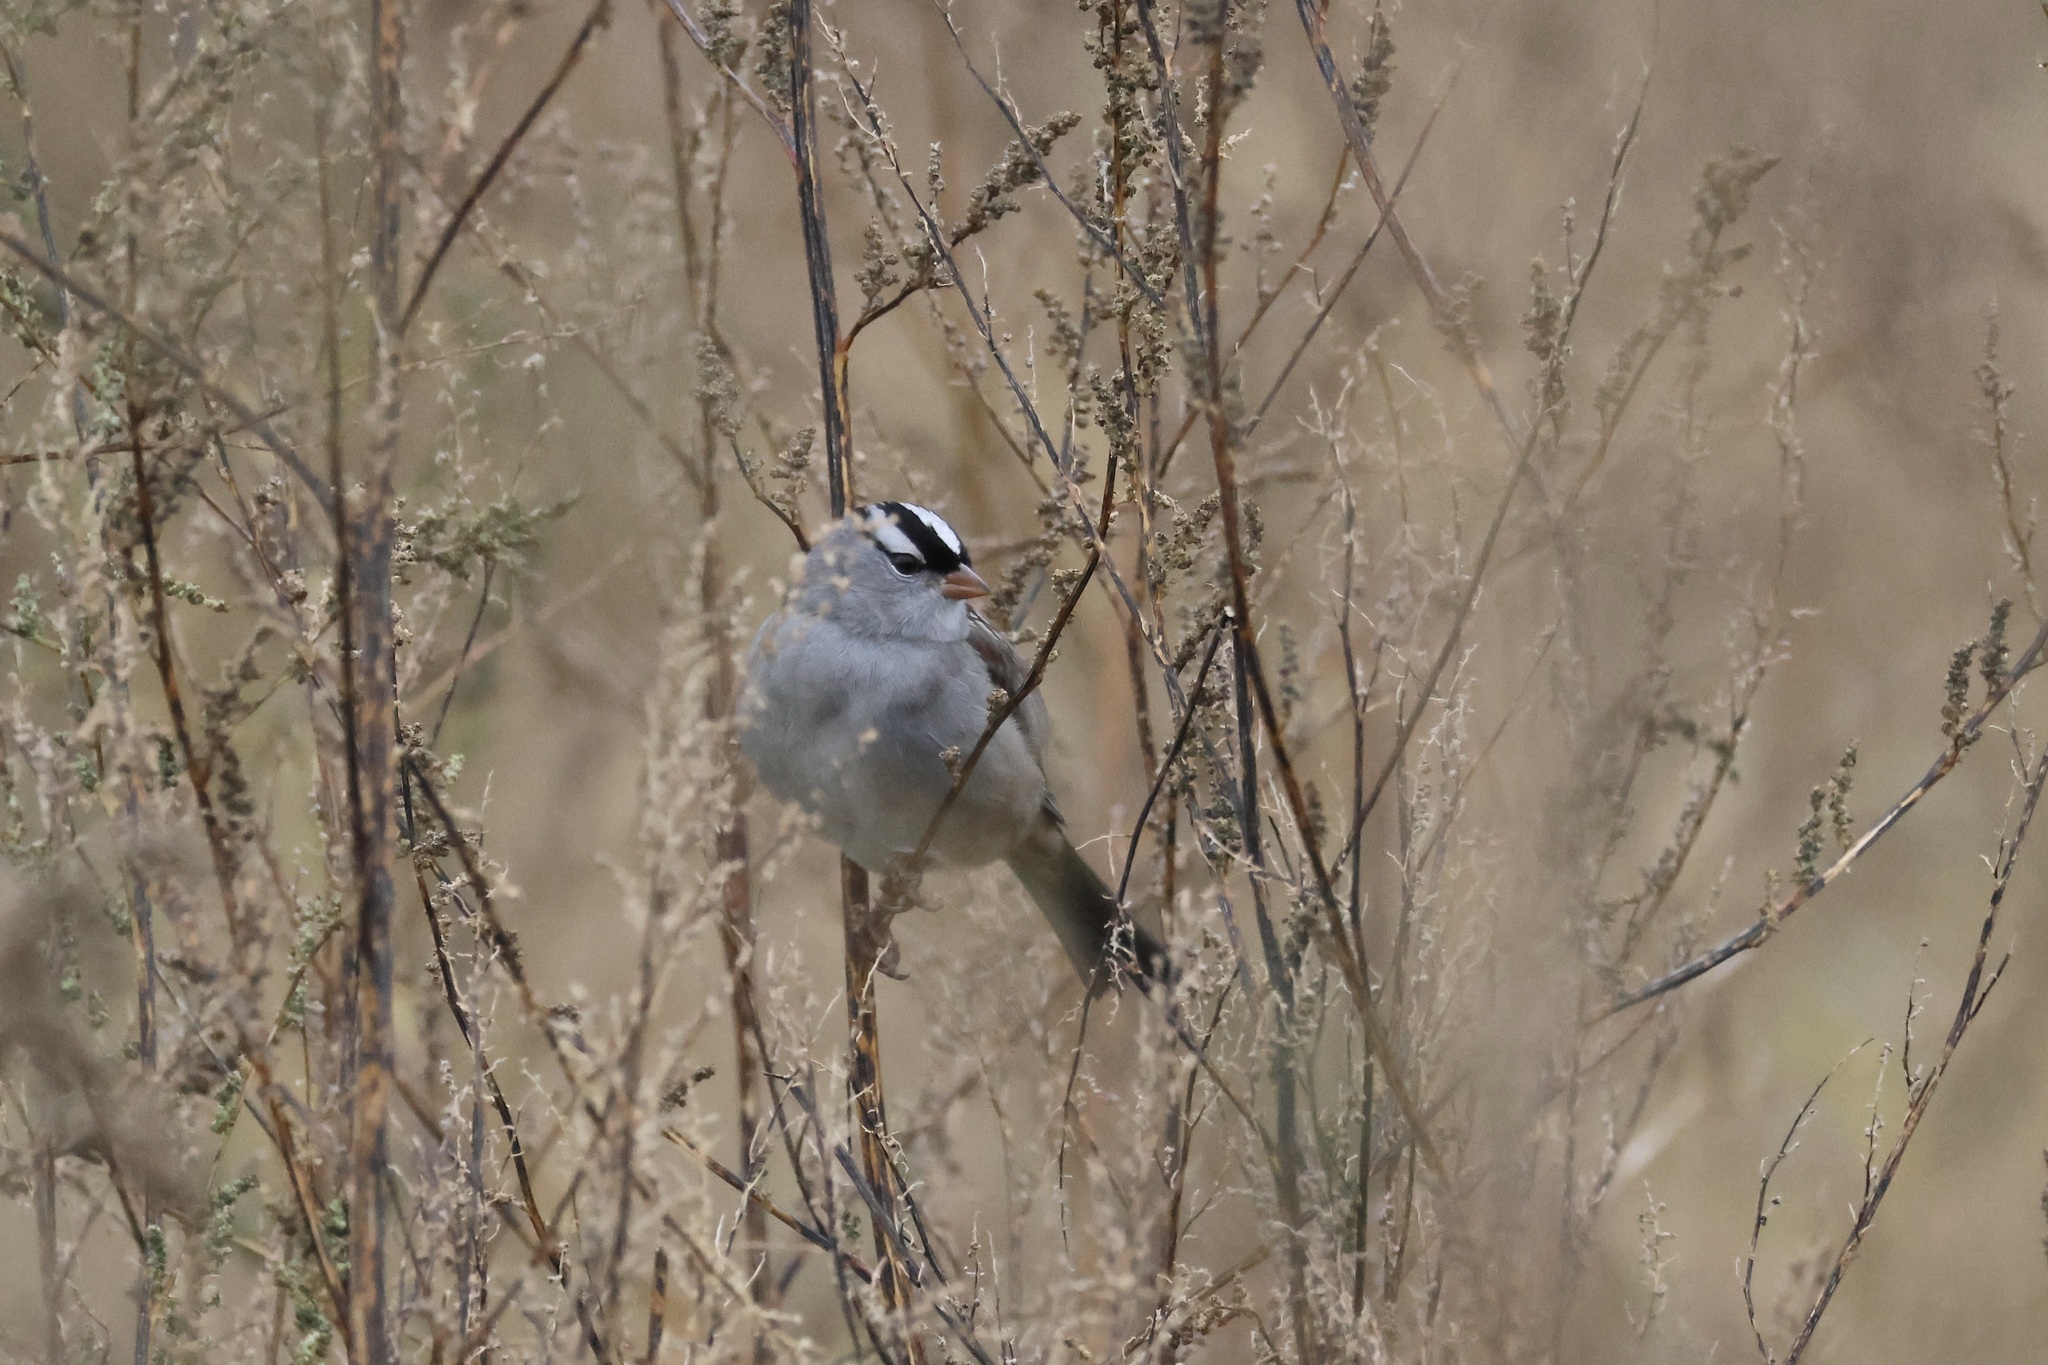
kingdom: Animalia
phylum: Chordata
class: Aves
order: Passeriformes
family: Passerellidae
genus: Zonotrichia
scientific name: Zonotrichia leucophrys
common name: White-crowned sparrow
